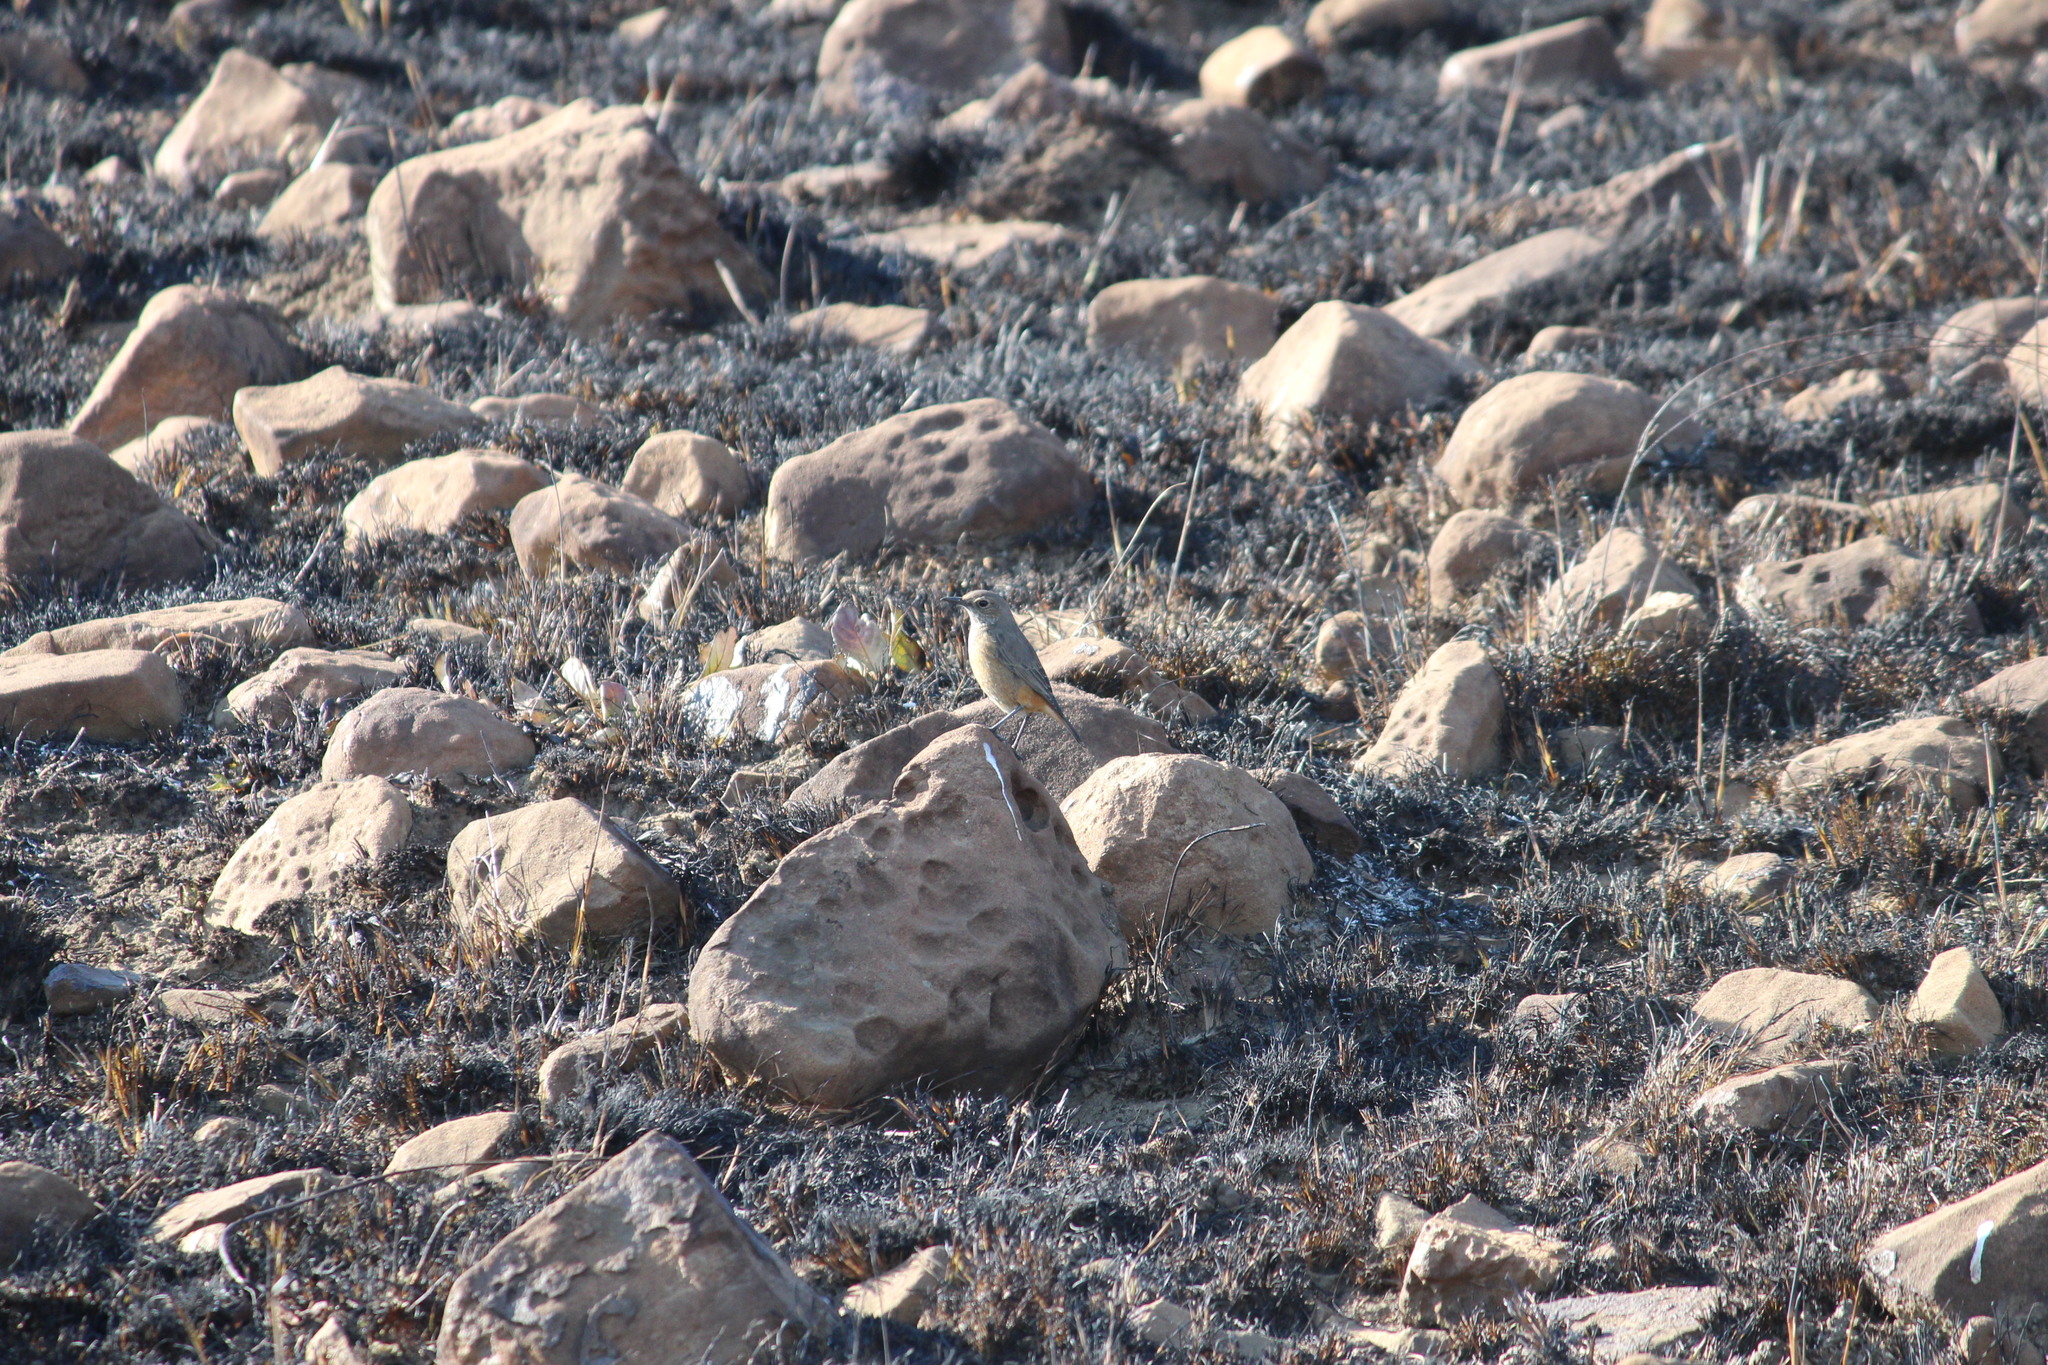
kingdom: Animalia
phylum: Chordata
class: Aves
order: Passeriformes
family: Muscicapidae
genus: Monticola
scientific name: Monticola explorator
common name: Sentinel rock thrush
